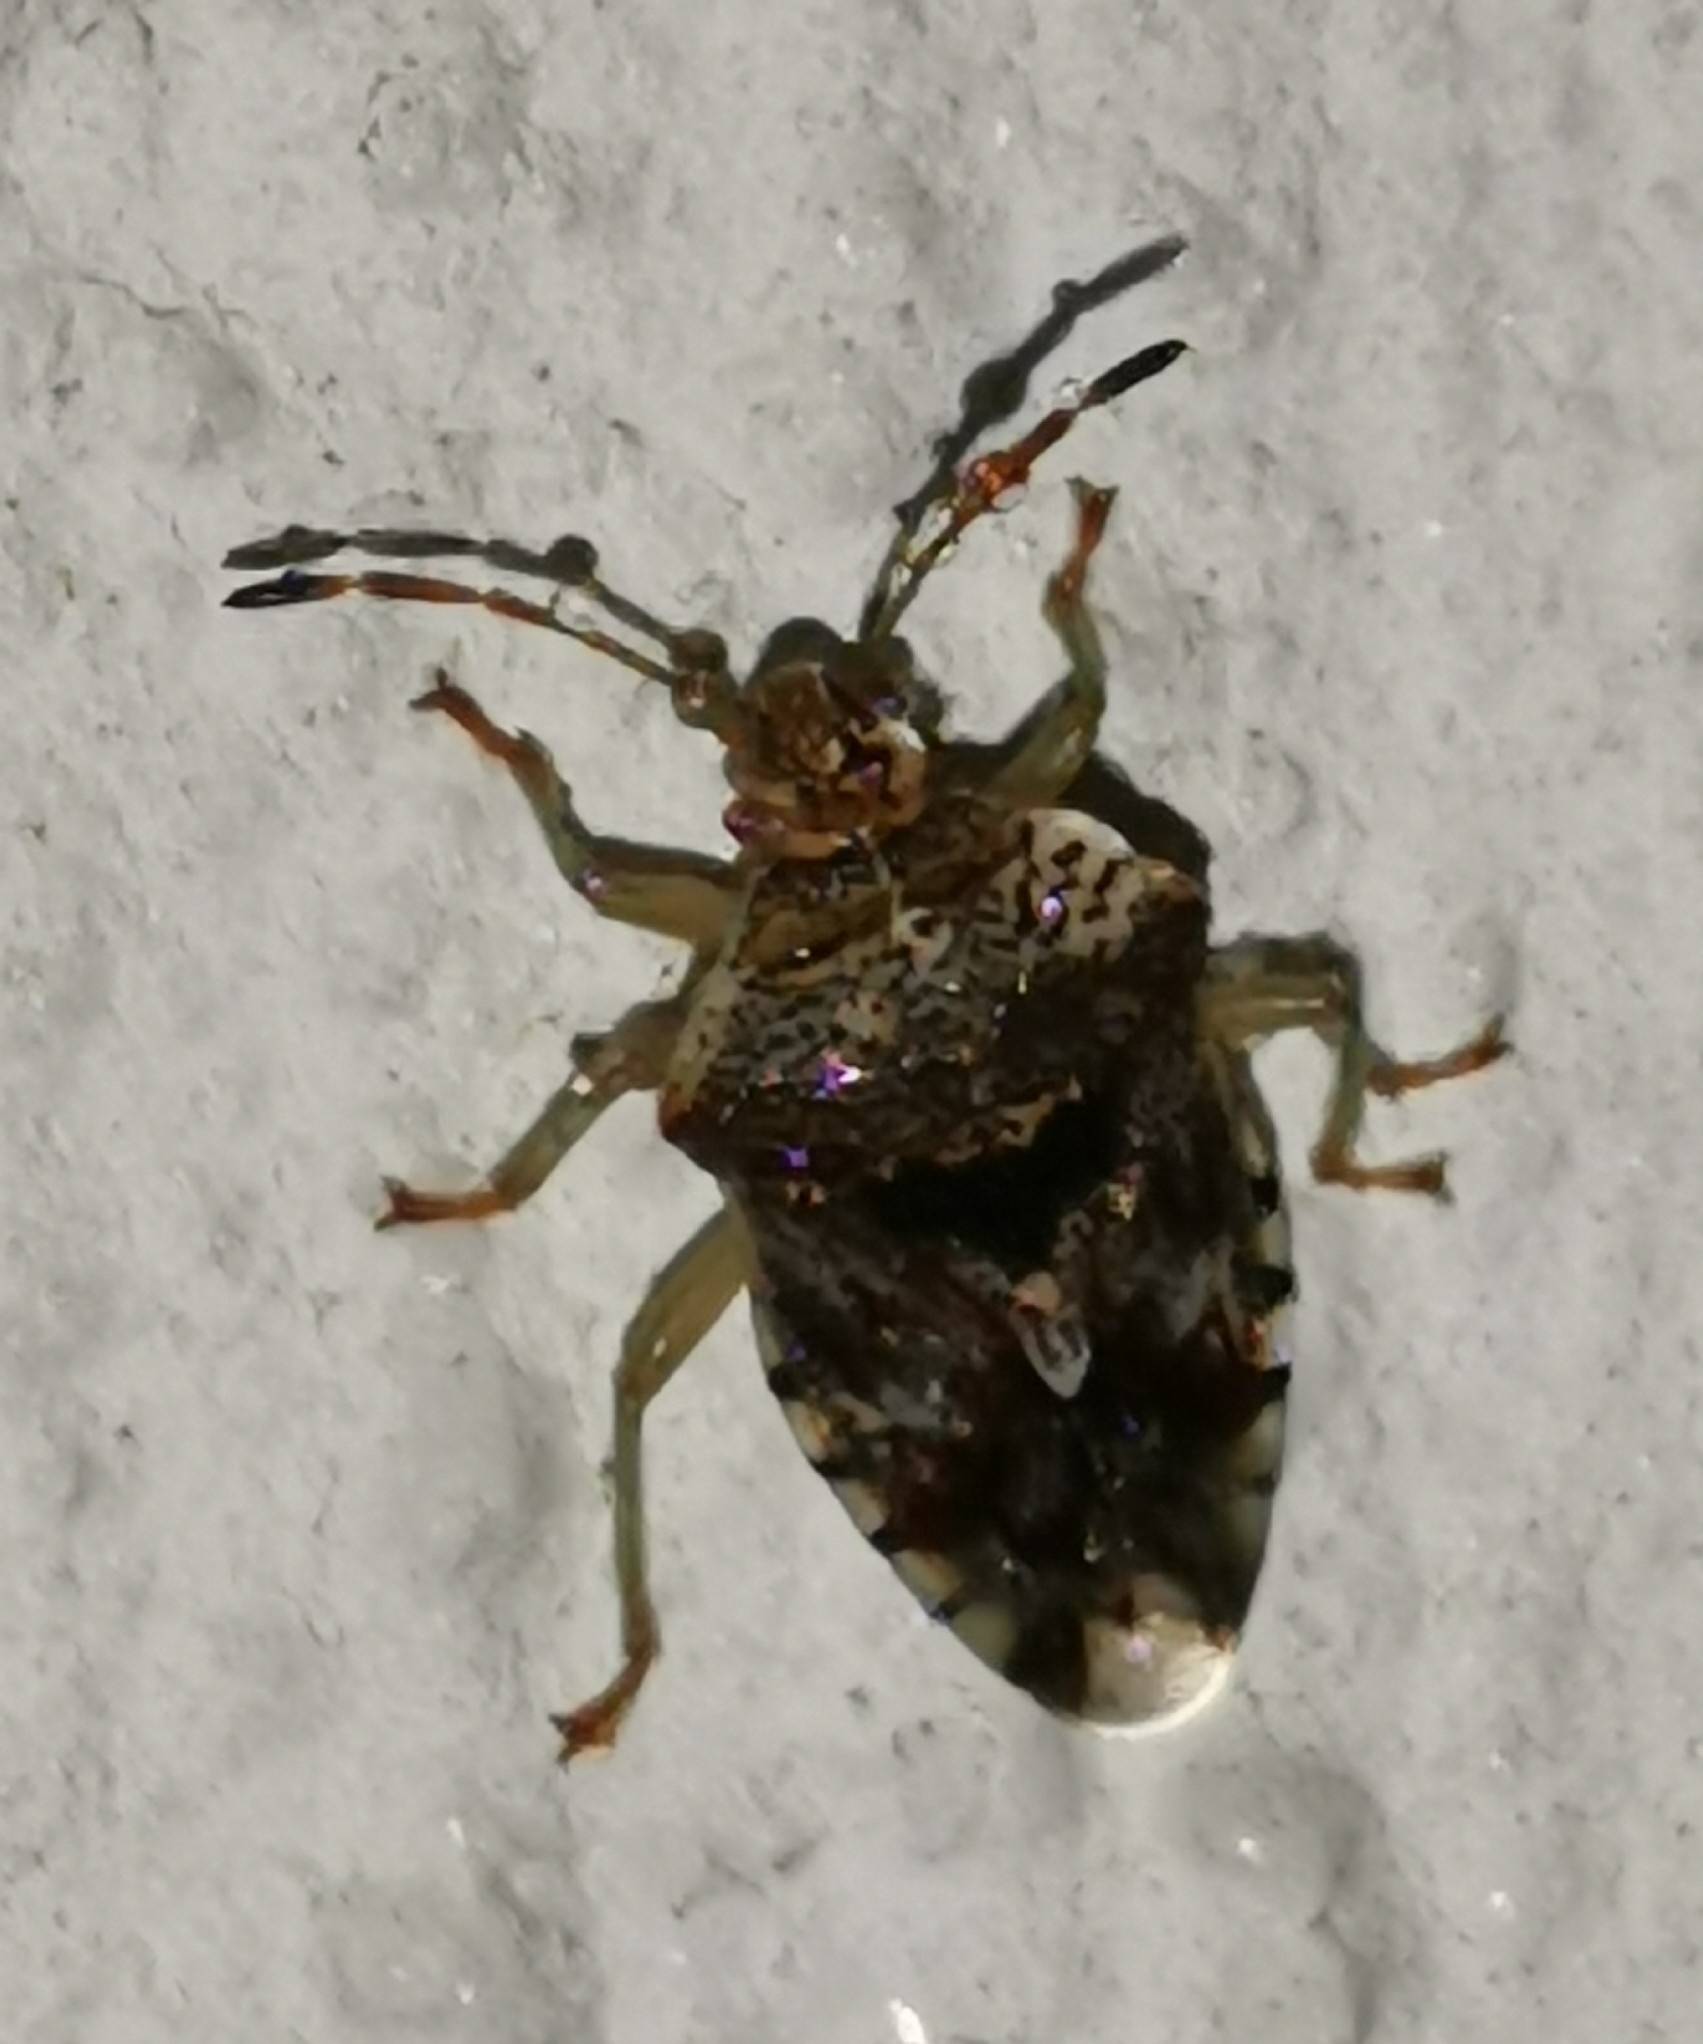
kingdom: Animalia
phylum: Arthropoda
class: Insecta
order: Hemiptera
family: Acanthosomatidae
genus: Elasmucha
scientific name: Elasmucha grisea
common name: Parent bug
